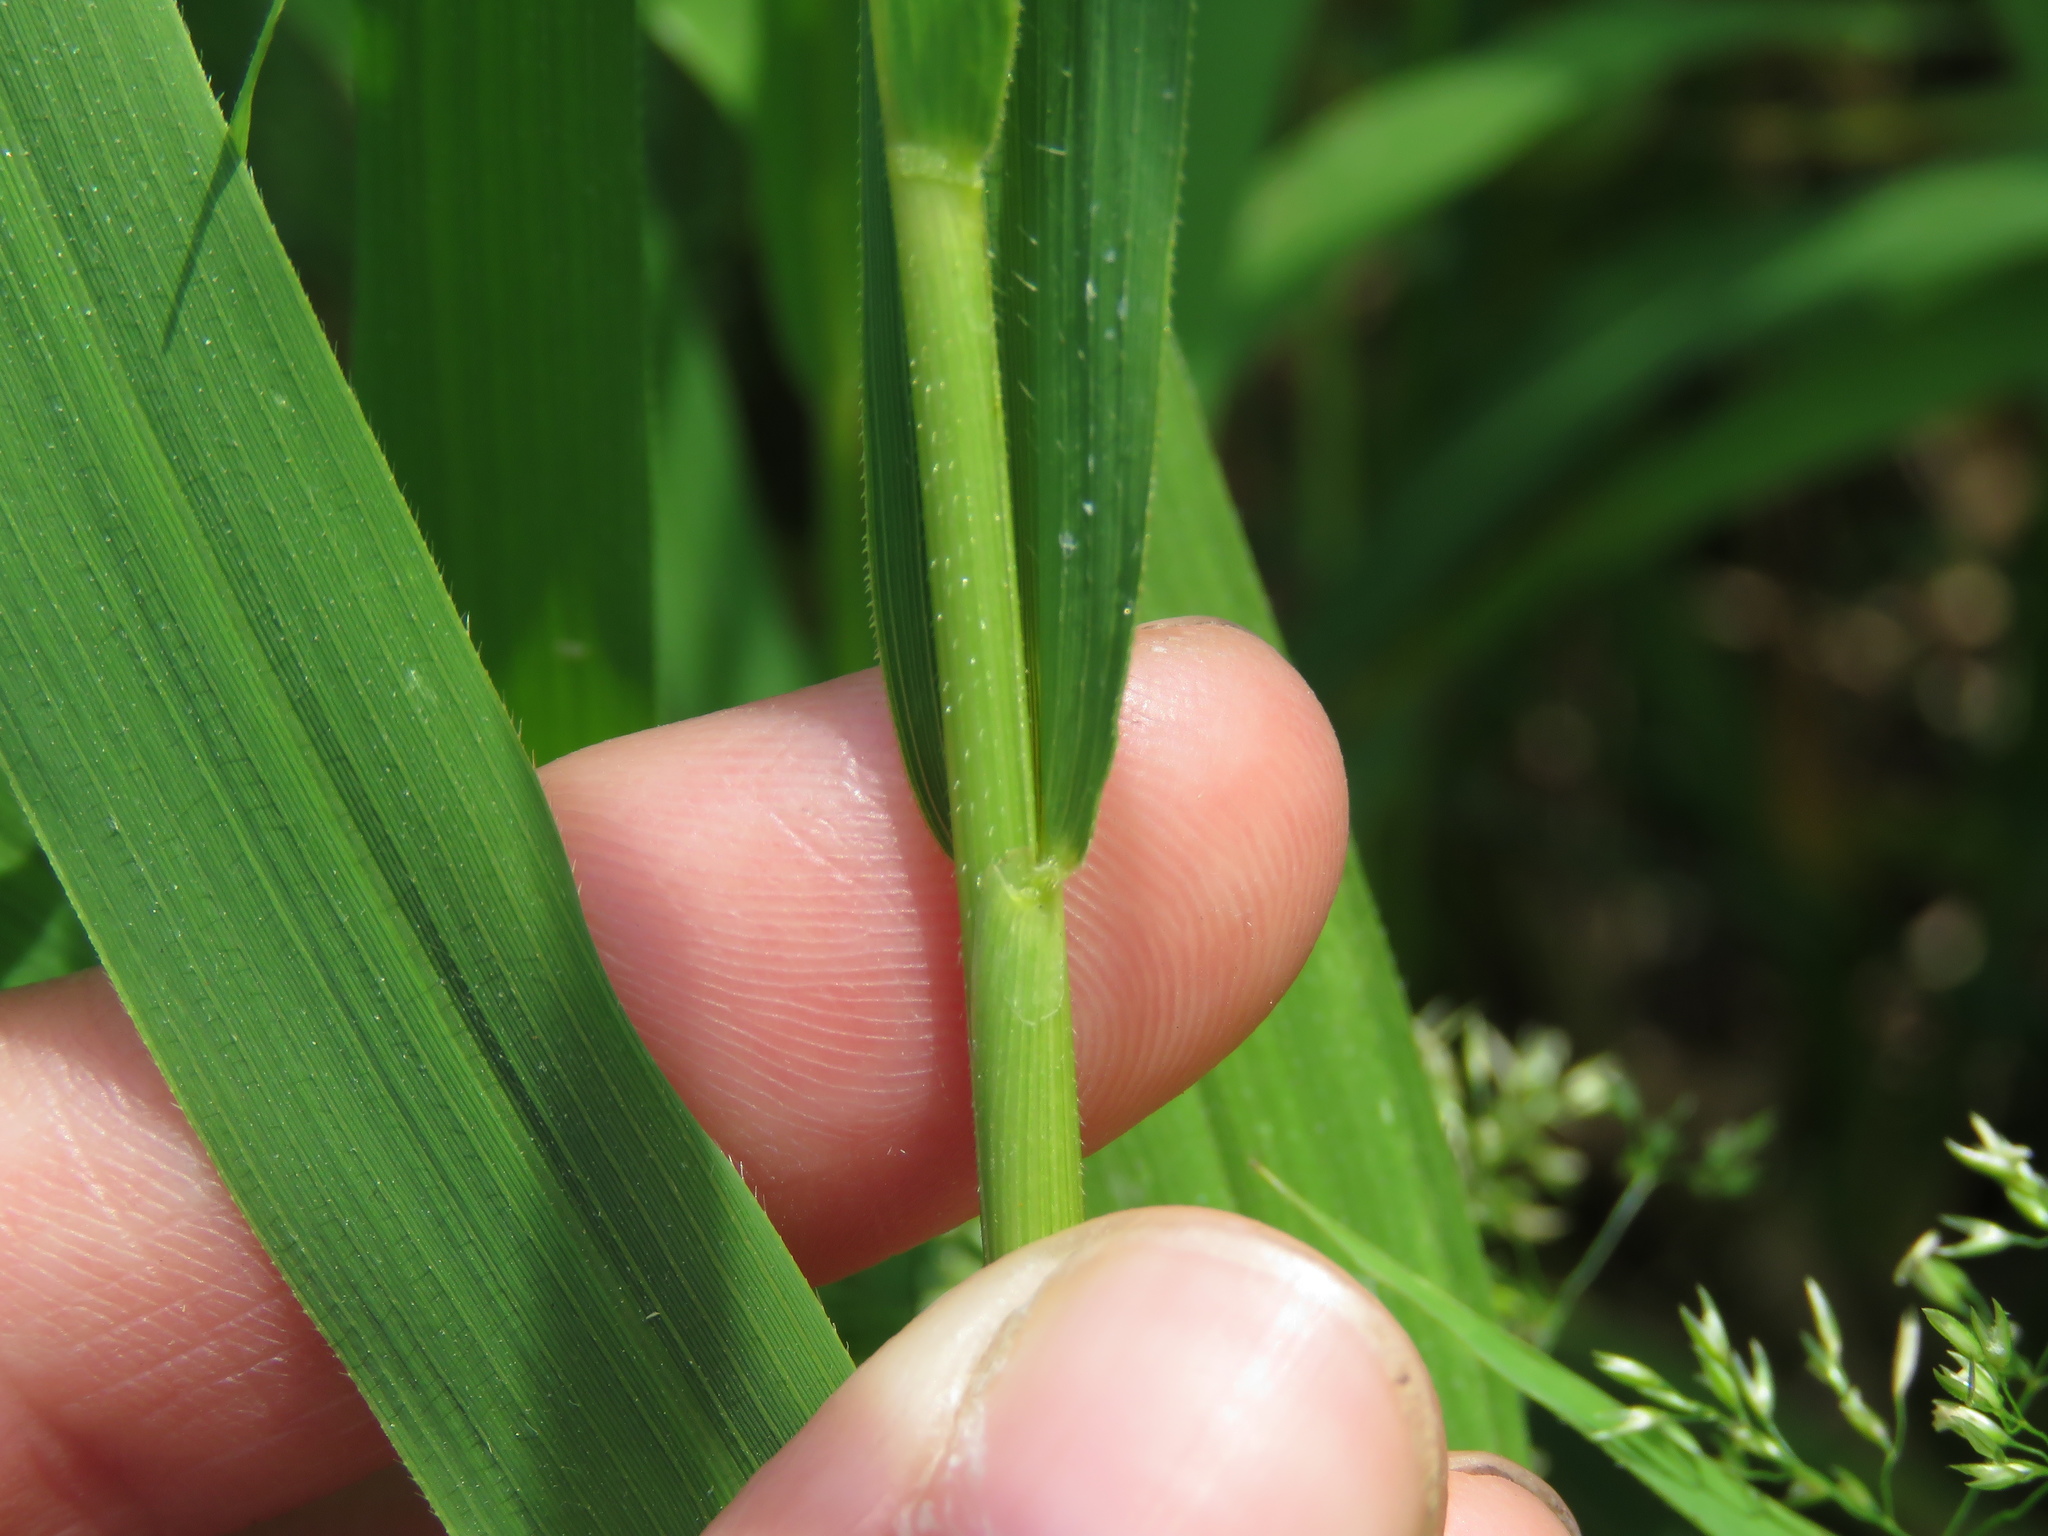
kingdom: Plantae
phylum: Tracheophyta
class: Liliopsida
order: Poales
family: Poaceae
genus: Leersia
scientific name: Leersia oryzoides
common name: Cut-grass
